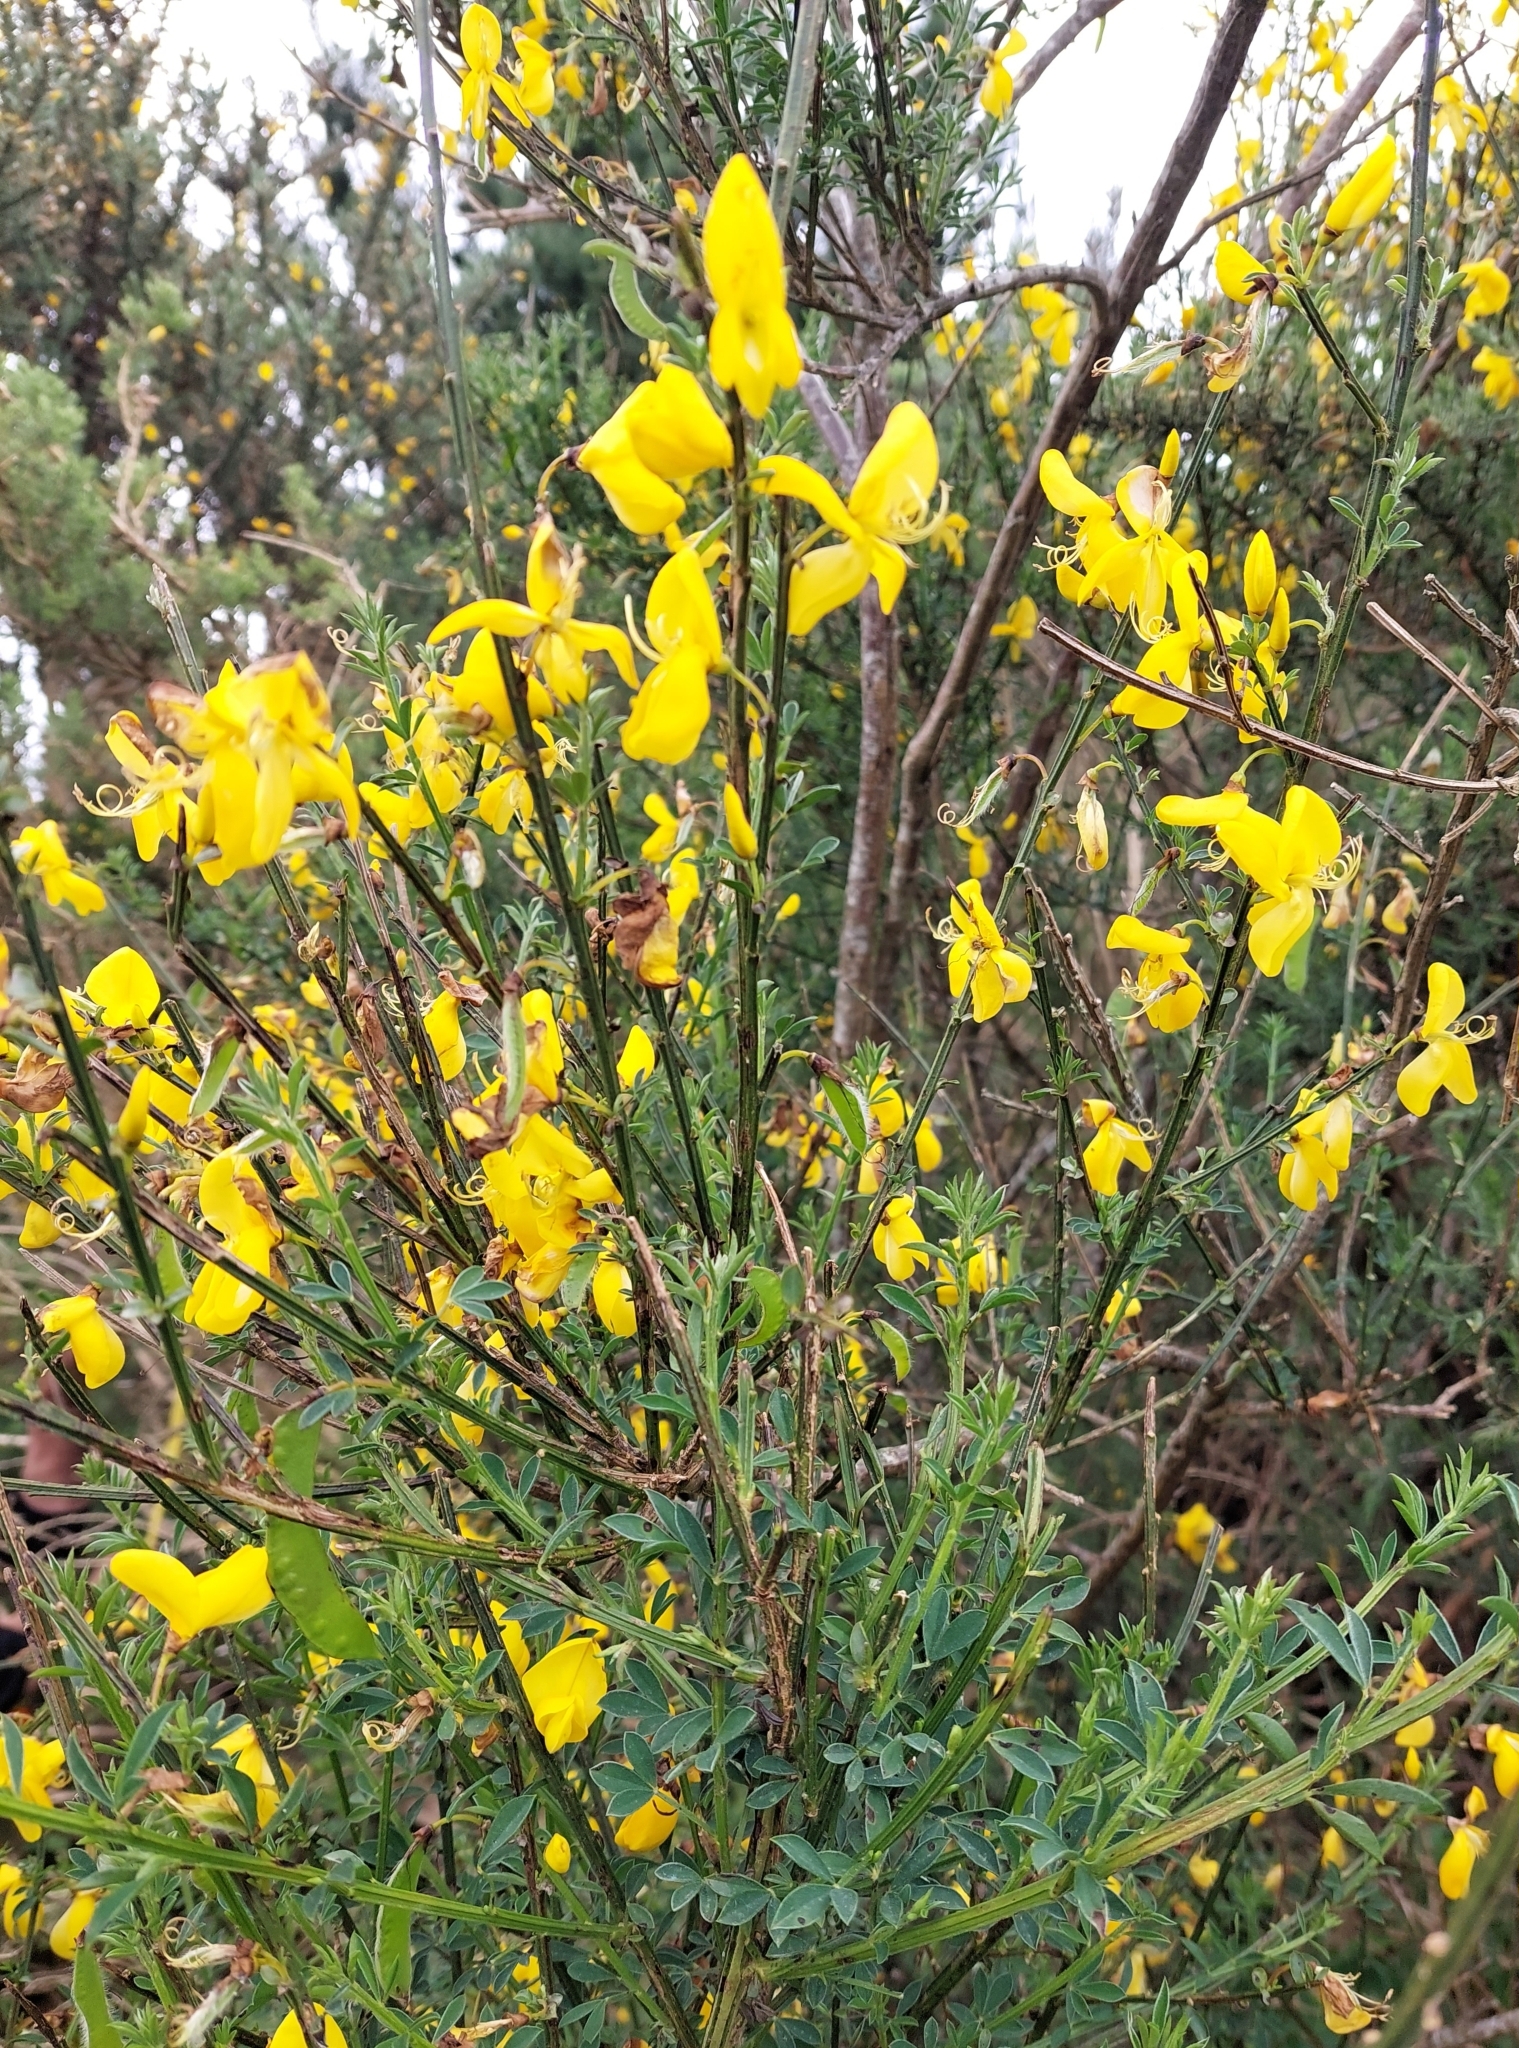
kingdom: Plantae
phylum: Tracheophyta
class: Magnoliopsida
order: Fabales
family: Fabaceae
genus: Cytisus
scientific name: Cytisus scoparius
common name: Scotch broom
